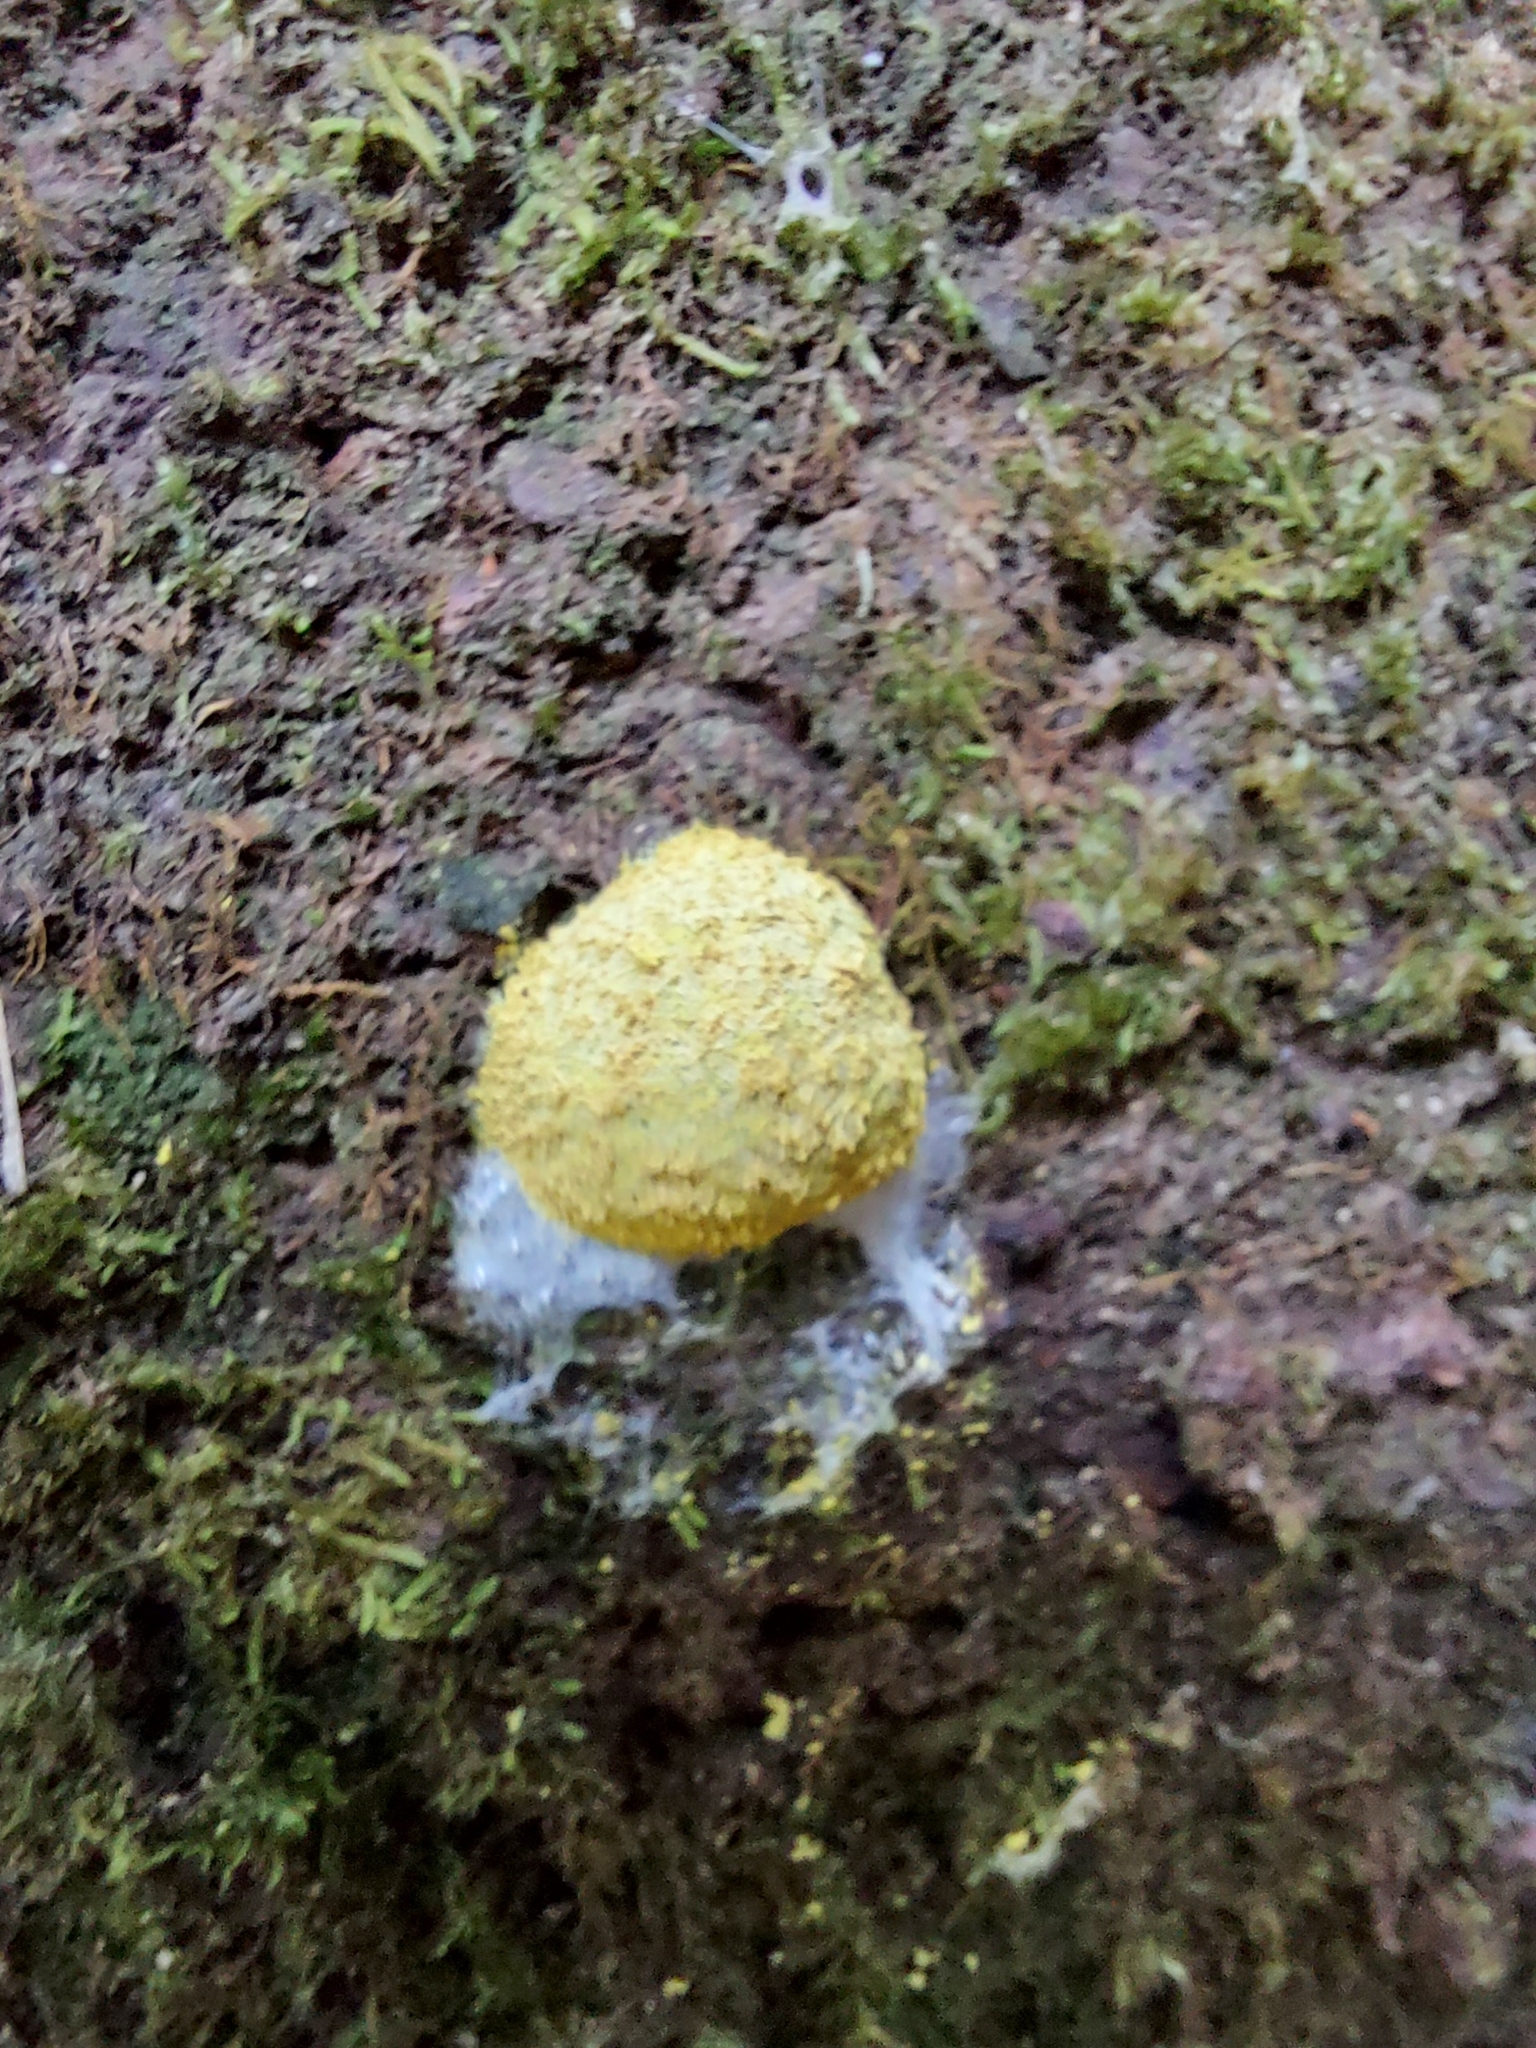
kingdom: Protozoa
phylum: Mycetozoa
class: Myxomycetes
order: Physarales
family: Physaraceae
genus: Fuligo
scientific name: Fuligo septica
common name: Dog vomit slime mold
